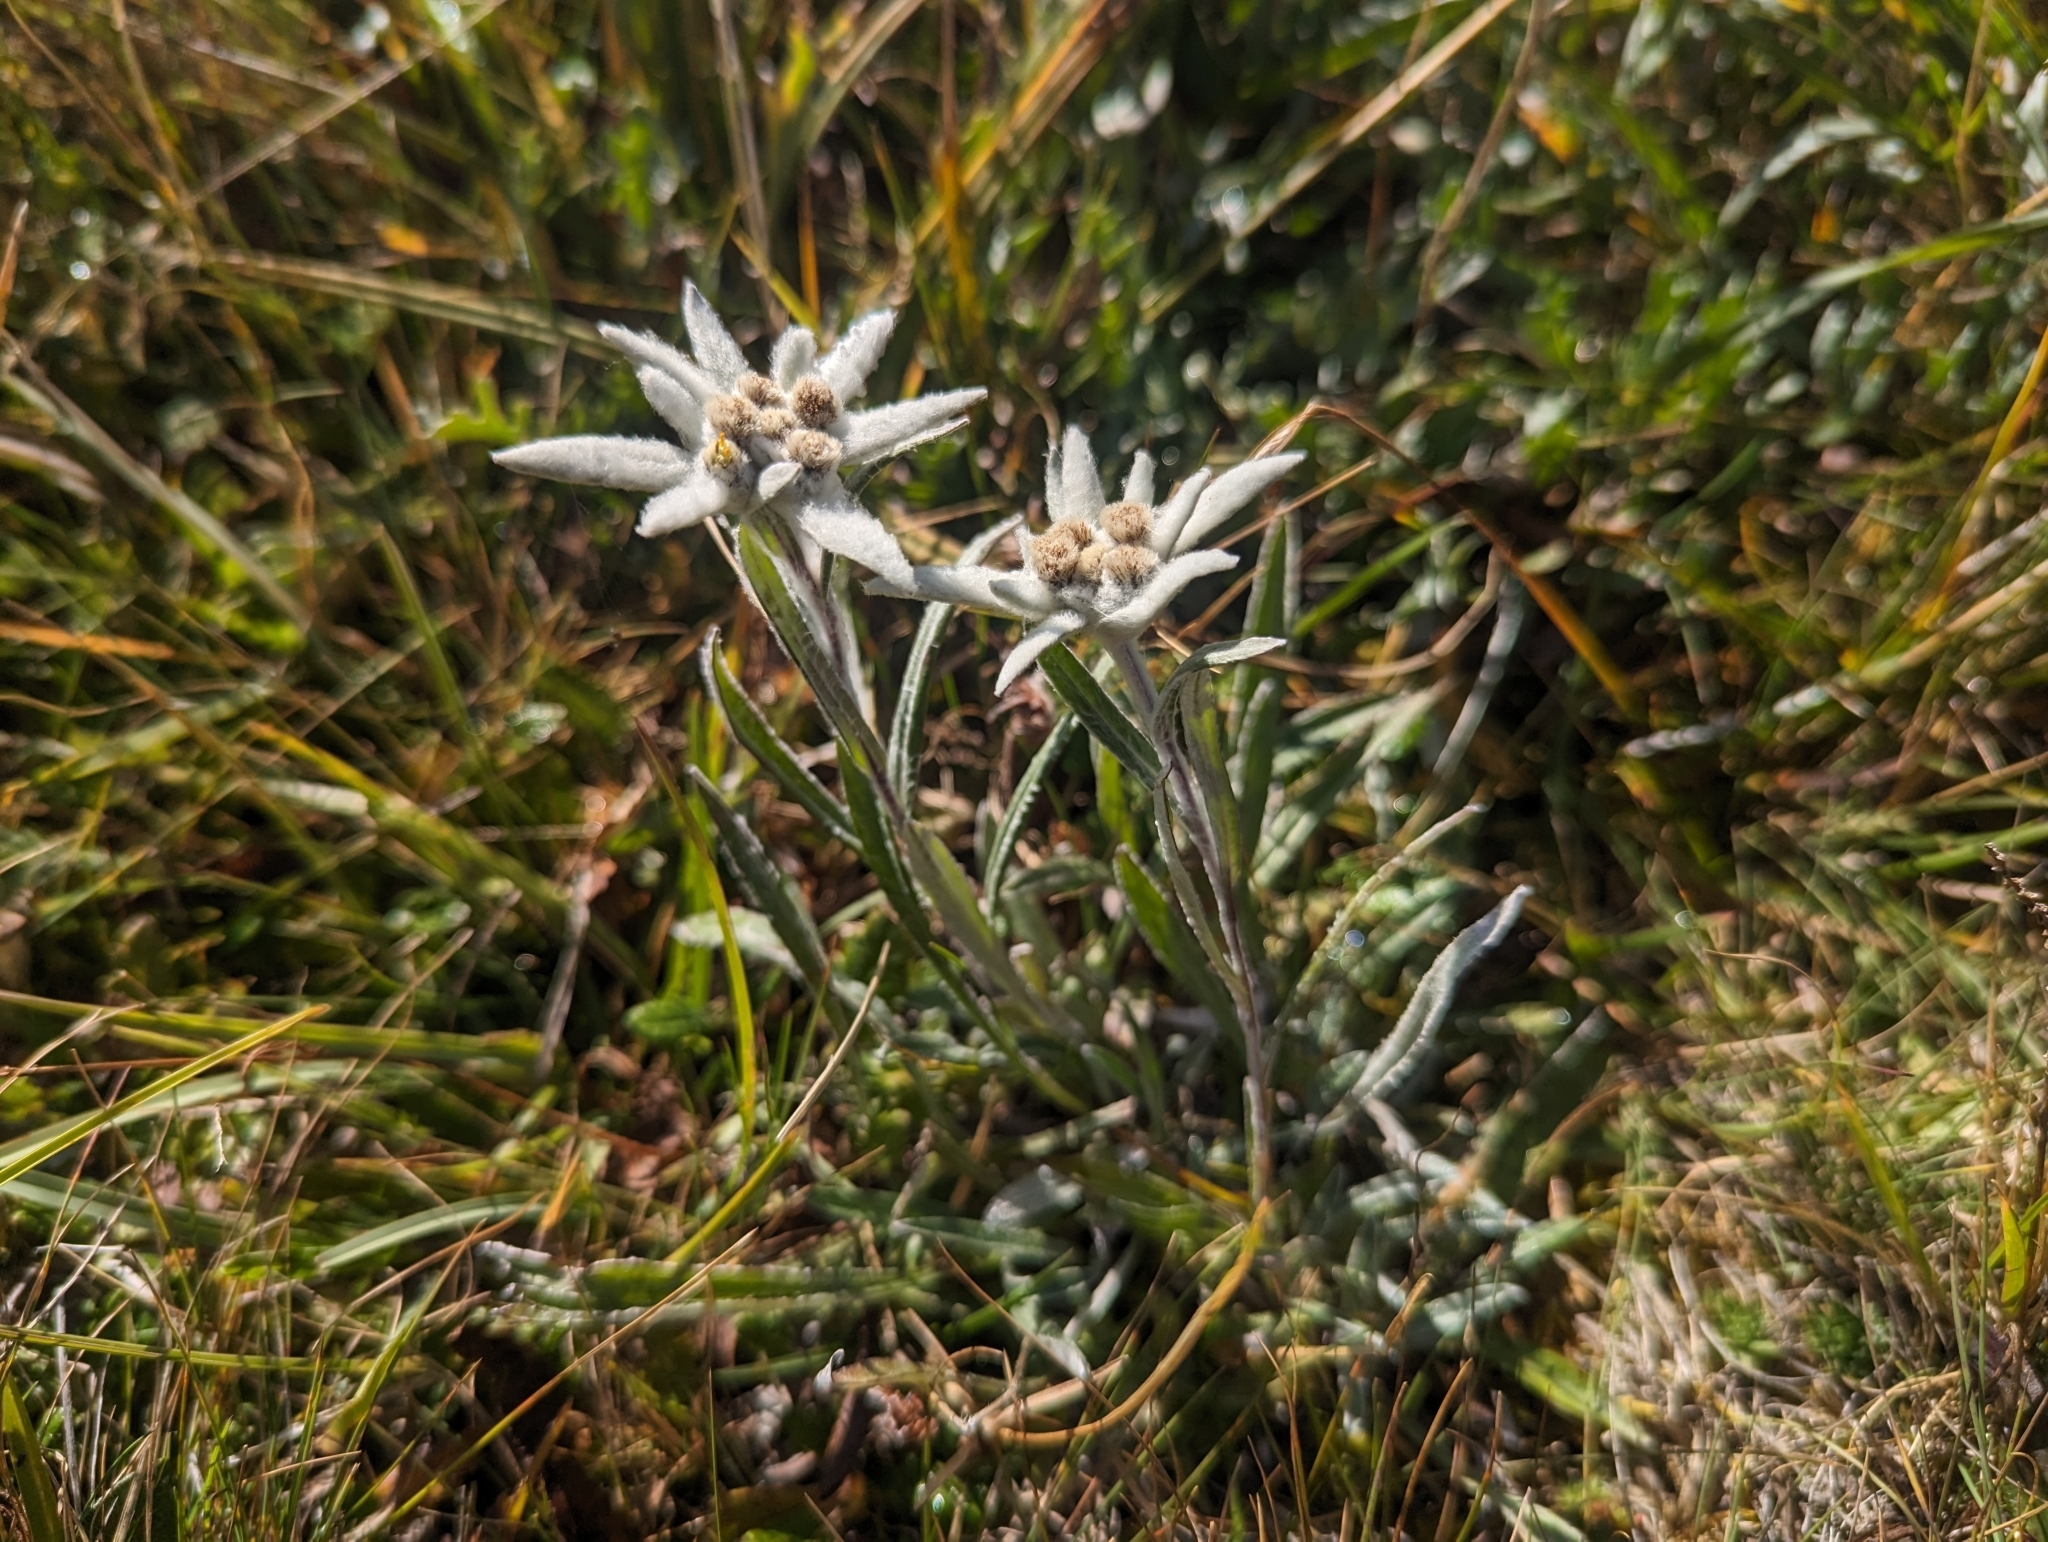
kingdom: Plantae
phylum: Tracheophyta
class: Magnoliopsida
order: Asterales
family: Asteraceae
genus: Leontopodium
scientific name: Leontopodium nivale
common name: Edelweiss
